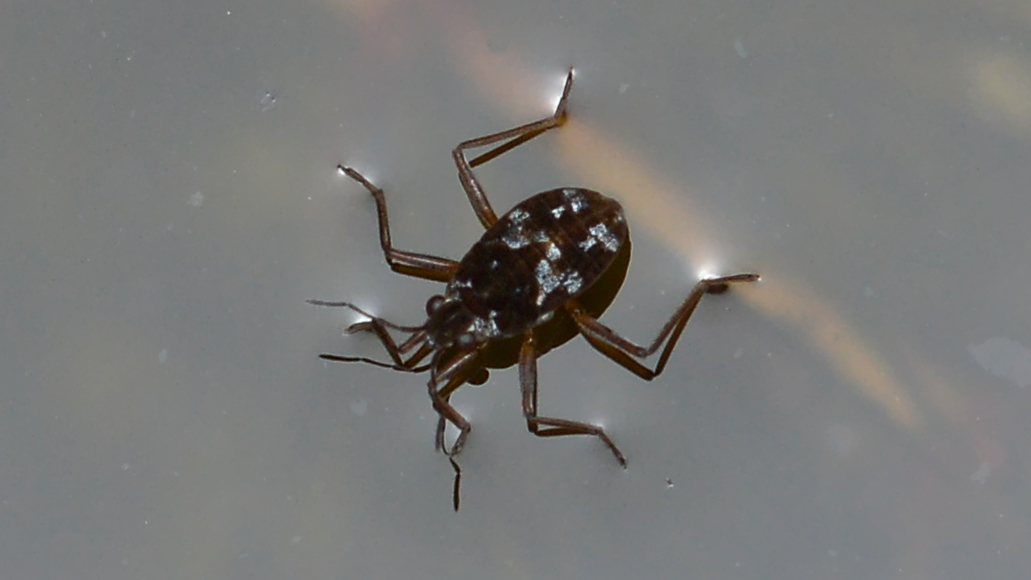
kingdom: Animalia
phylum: Arthropoda
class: Insecta
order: Hemiptera
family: Veliidae
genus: Microvelia
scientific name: Microvelia americana
